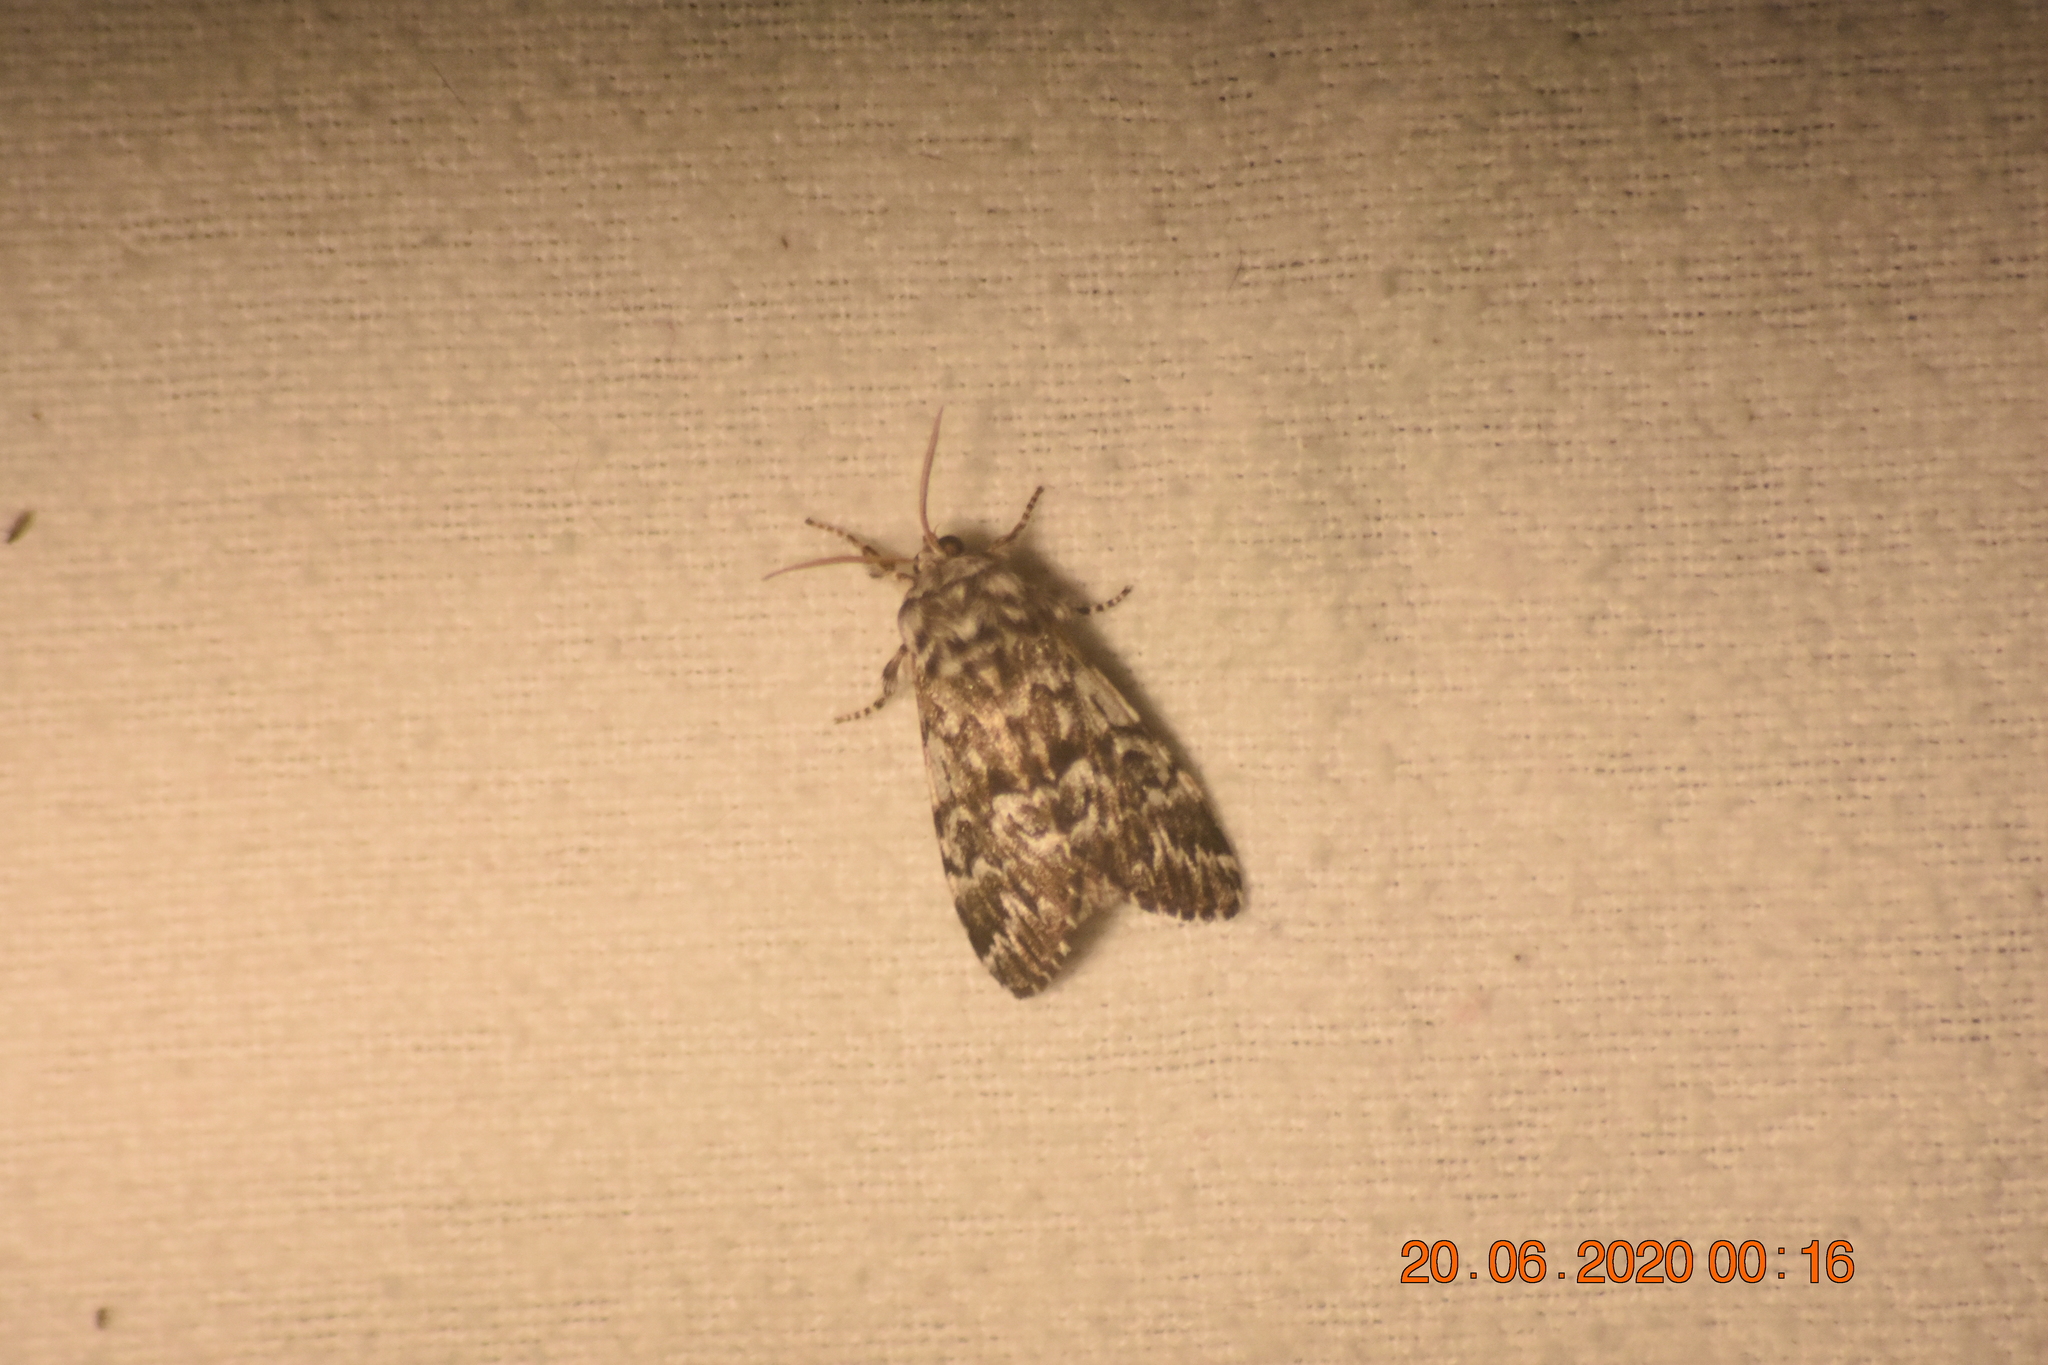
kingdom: Animalia
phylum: Arthropoda
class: Insecta
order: Lepidoptera
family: Noctuidae
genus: Panthea
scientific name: Panthea acronyctoides
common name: Black zigzag moth
